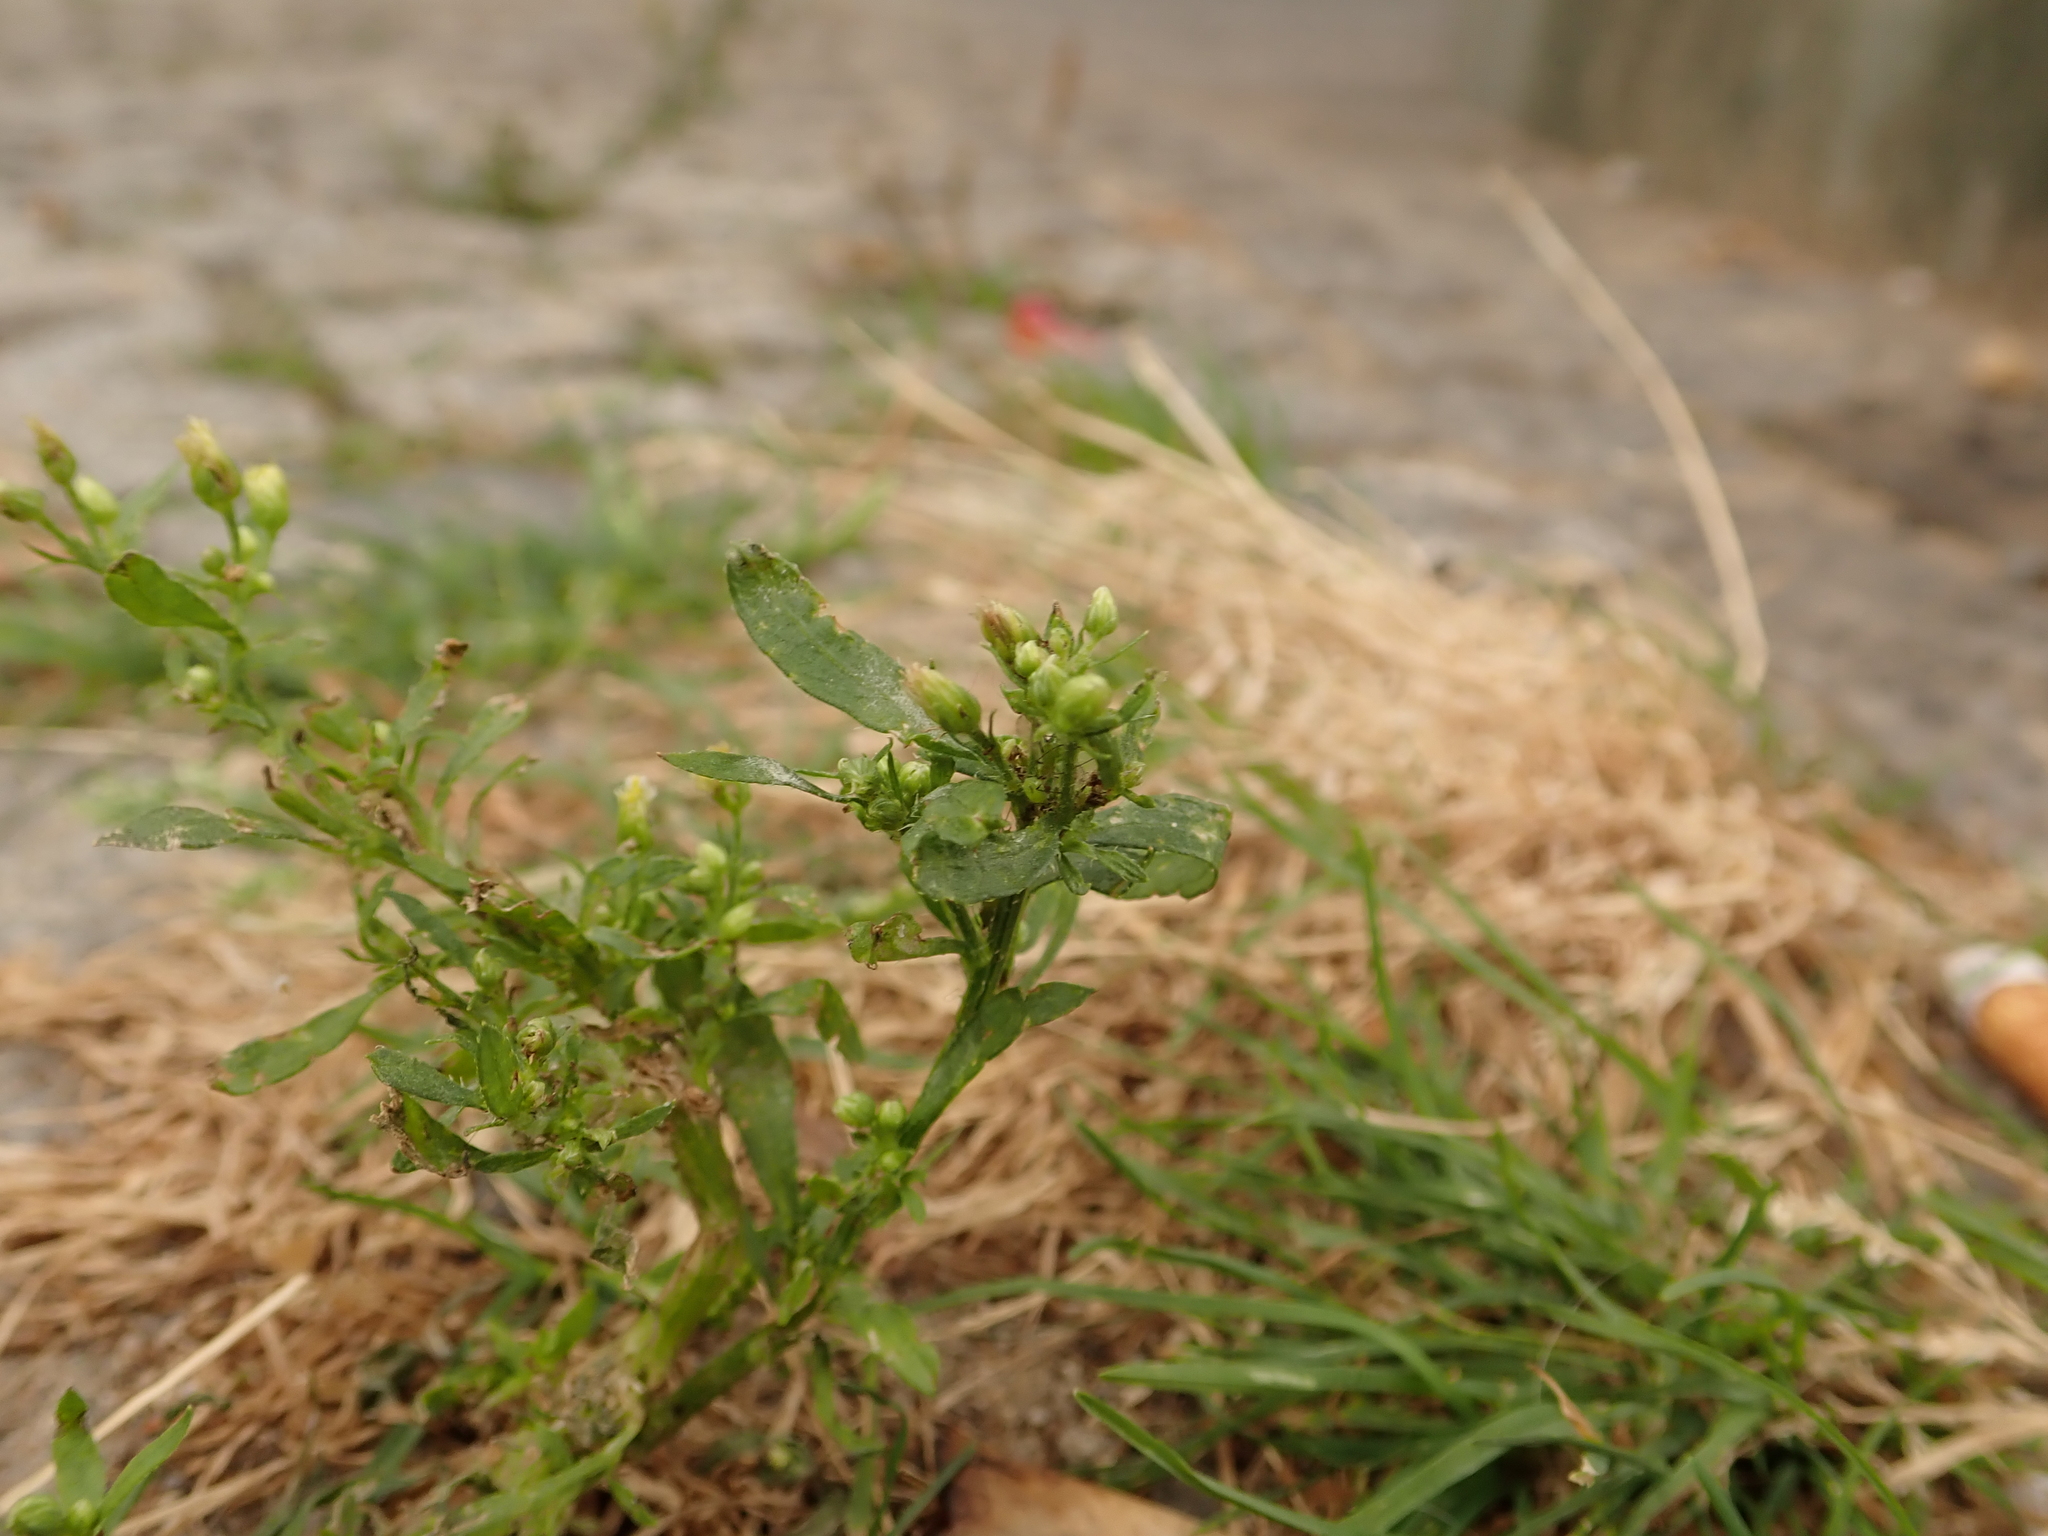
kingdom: Plantae
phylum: Tracheophyta
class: Magnoliopsida
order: Asterales
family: Asteraceae
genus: Erigeron
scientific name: Erigeron canadensis
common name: Canadian fleabane
